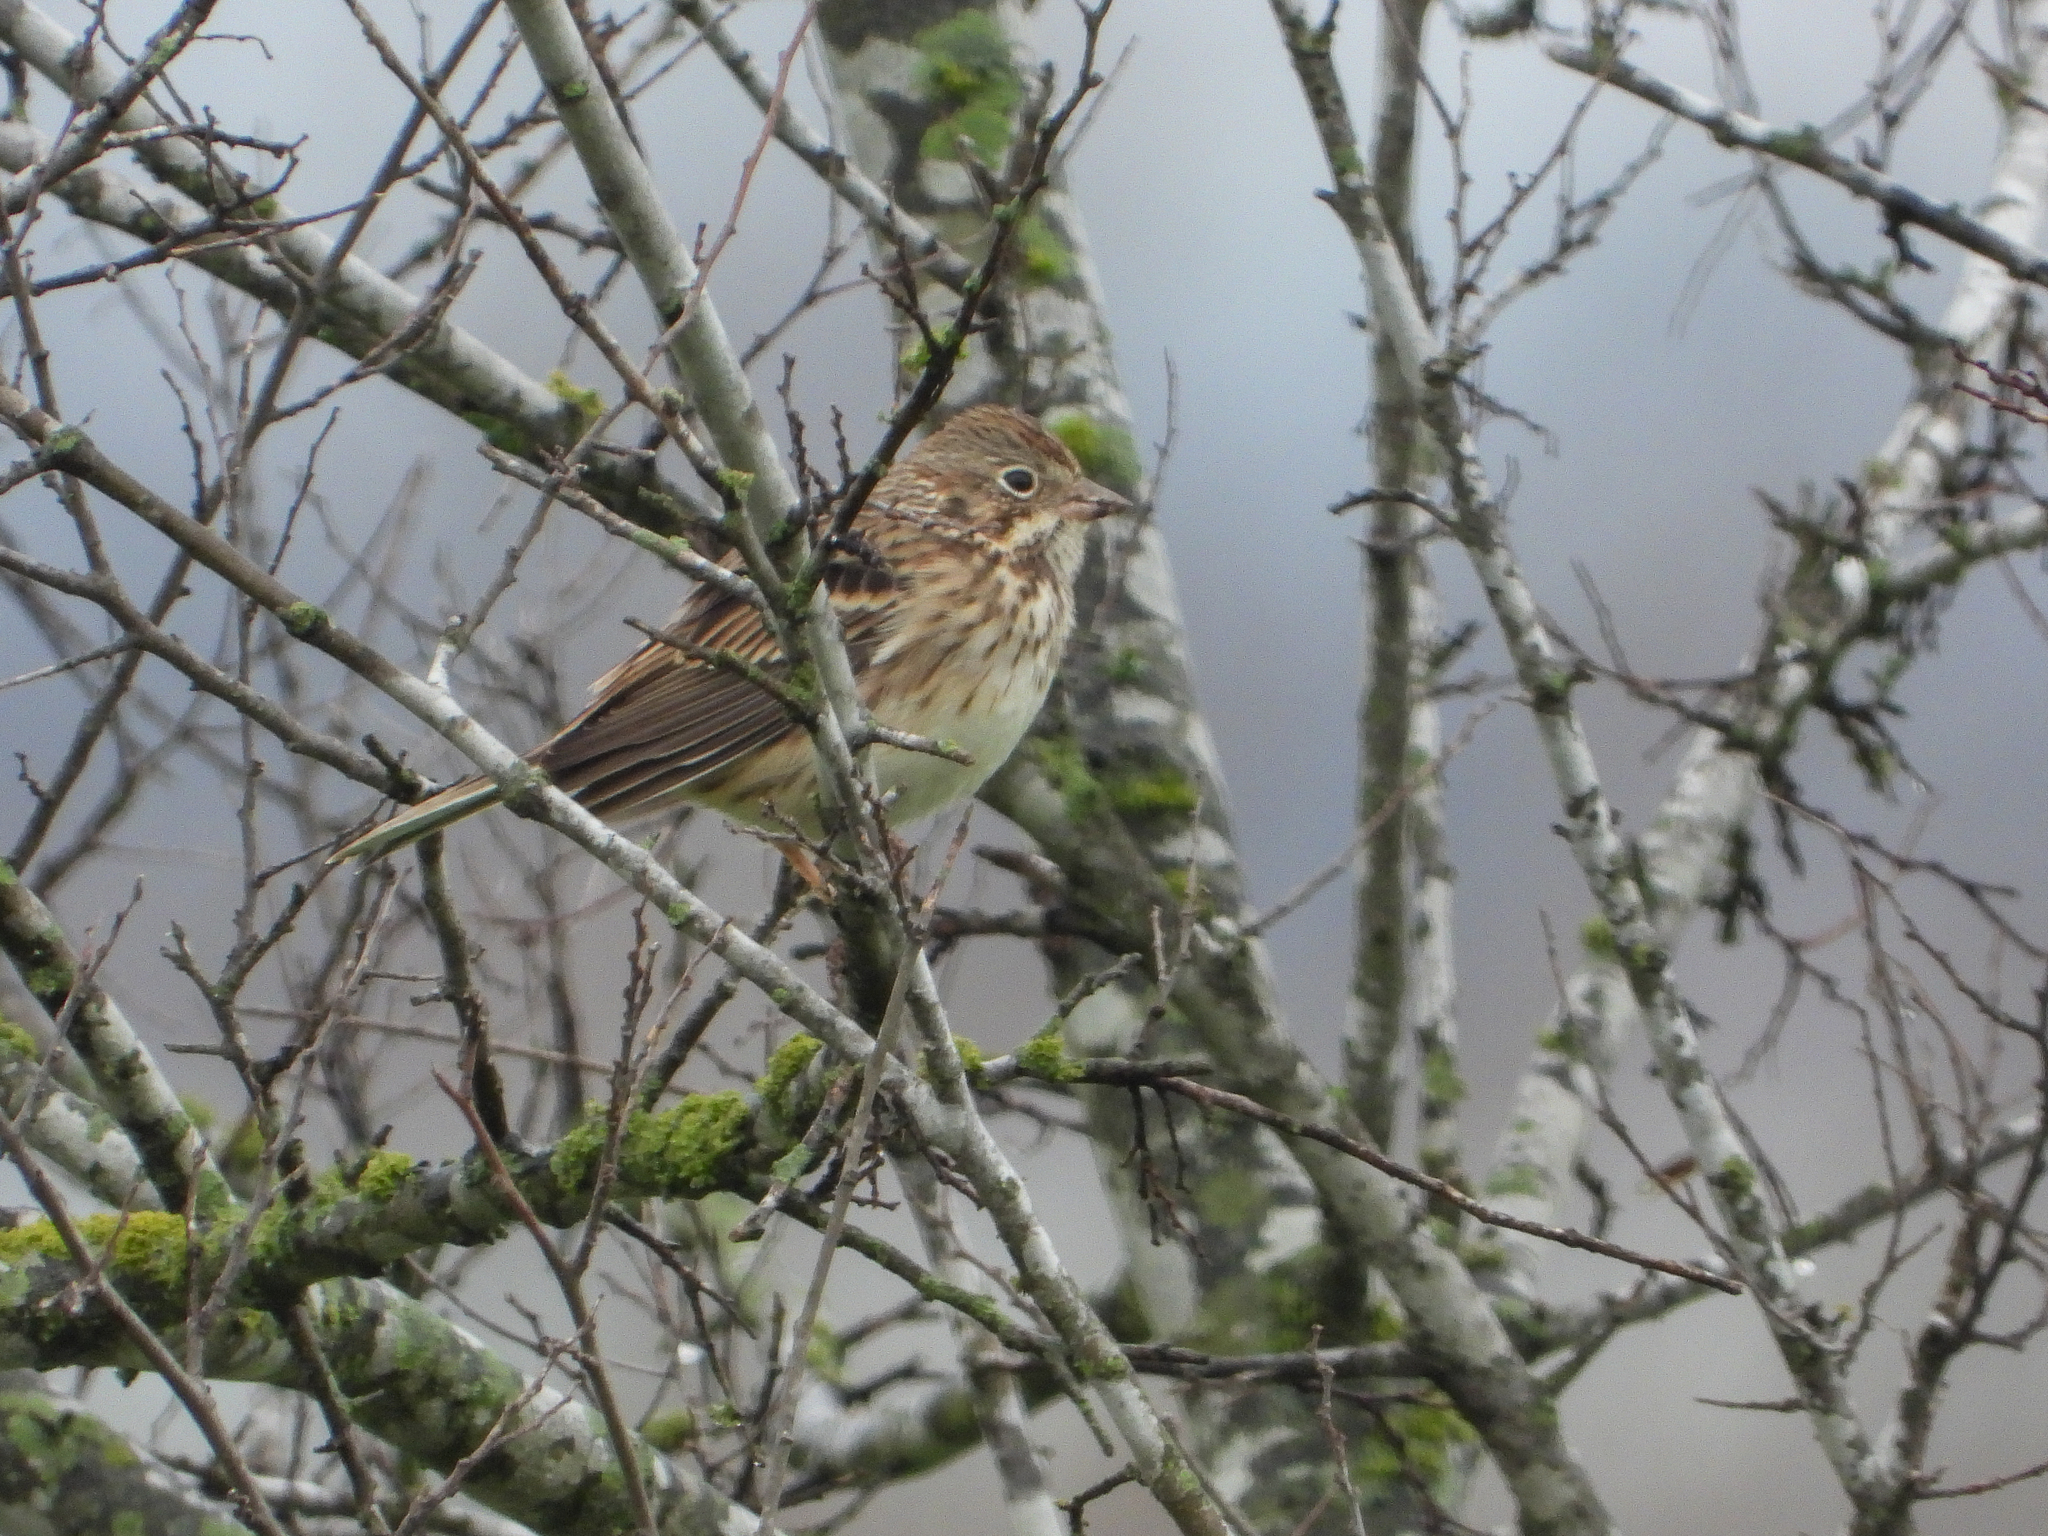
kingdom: Animalia
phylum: Chordata
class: Aves
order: Passeriformes
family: Passerellidae
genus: Pooecetes
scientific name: Pooecetes gramineus
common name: Vesper sparrow
